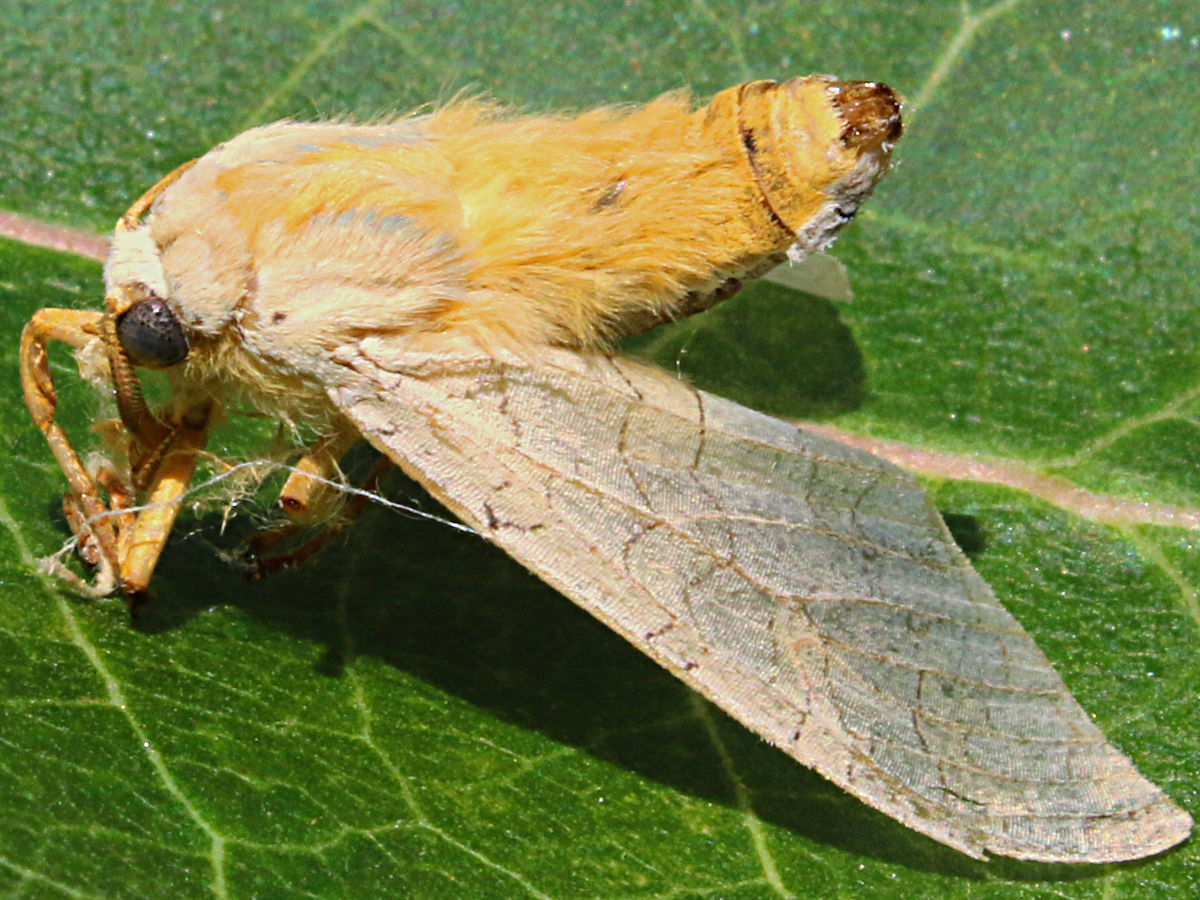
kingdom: Animalia
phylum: Arthropoda
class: Insecta
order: Lepidoptera
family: Erebidae
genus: Halysidota
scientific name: Halysidota
